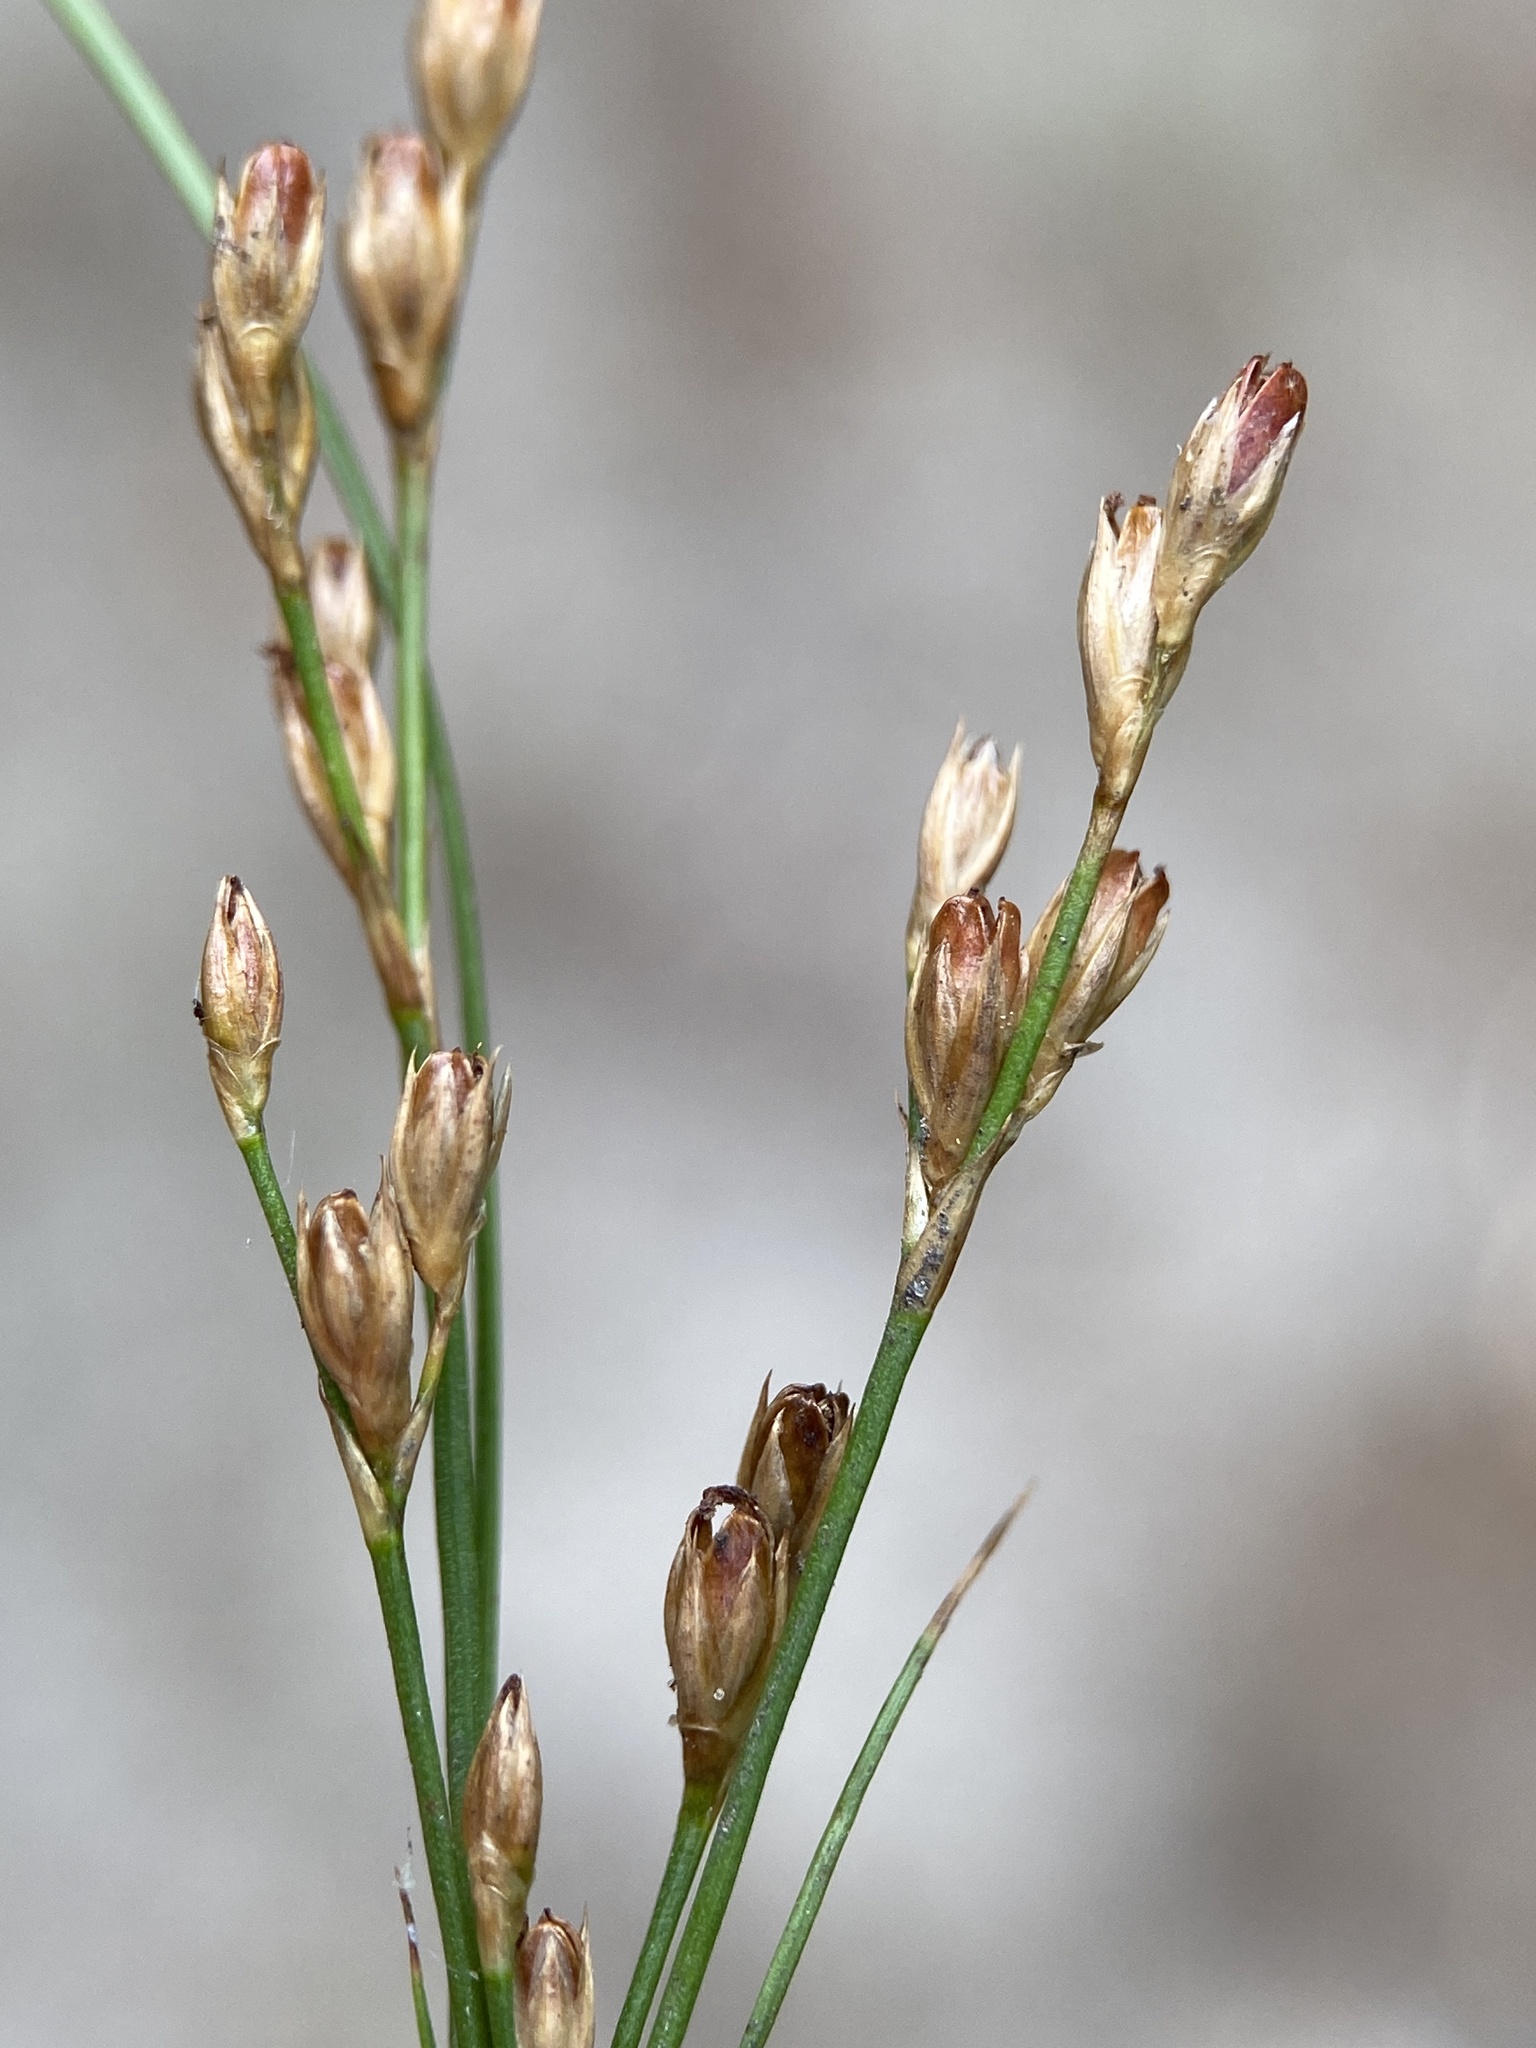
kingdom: Plantae
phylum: Tracheophyta
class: Liliopsida
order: Poales
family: Juncaceae
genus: Juncus
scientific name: Juncus greenei
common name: Greene's rush
